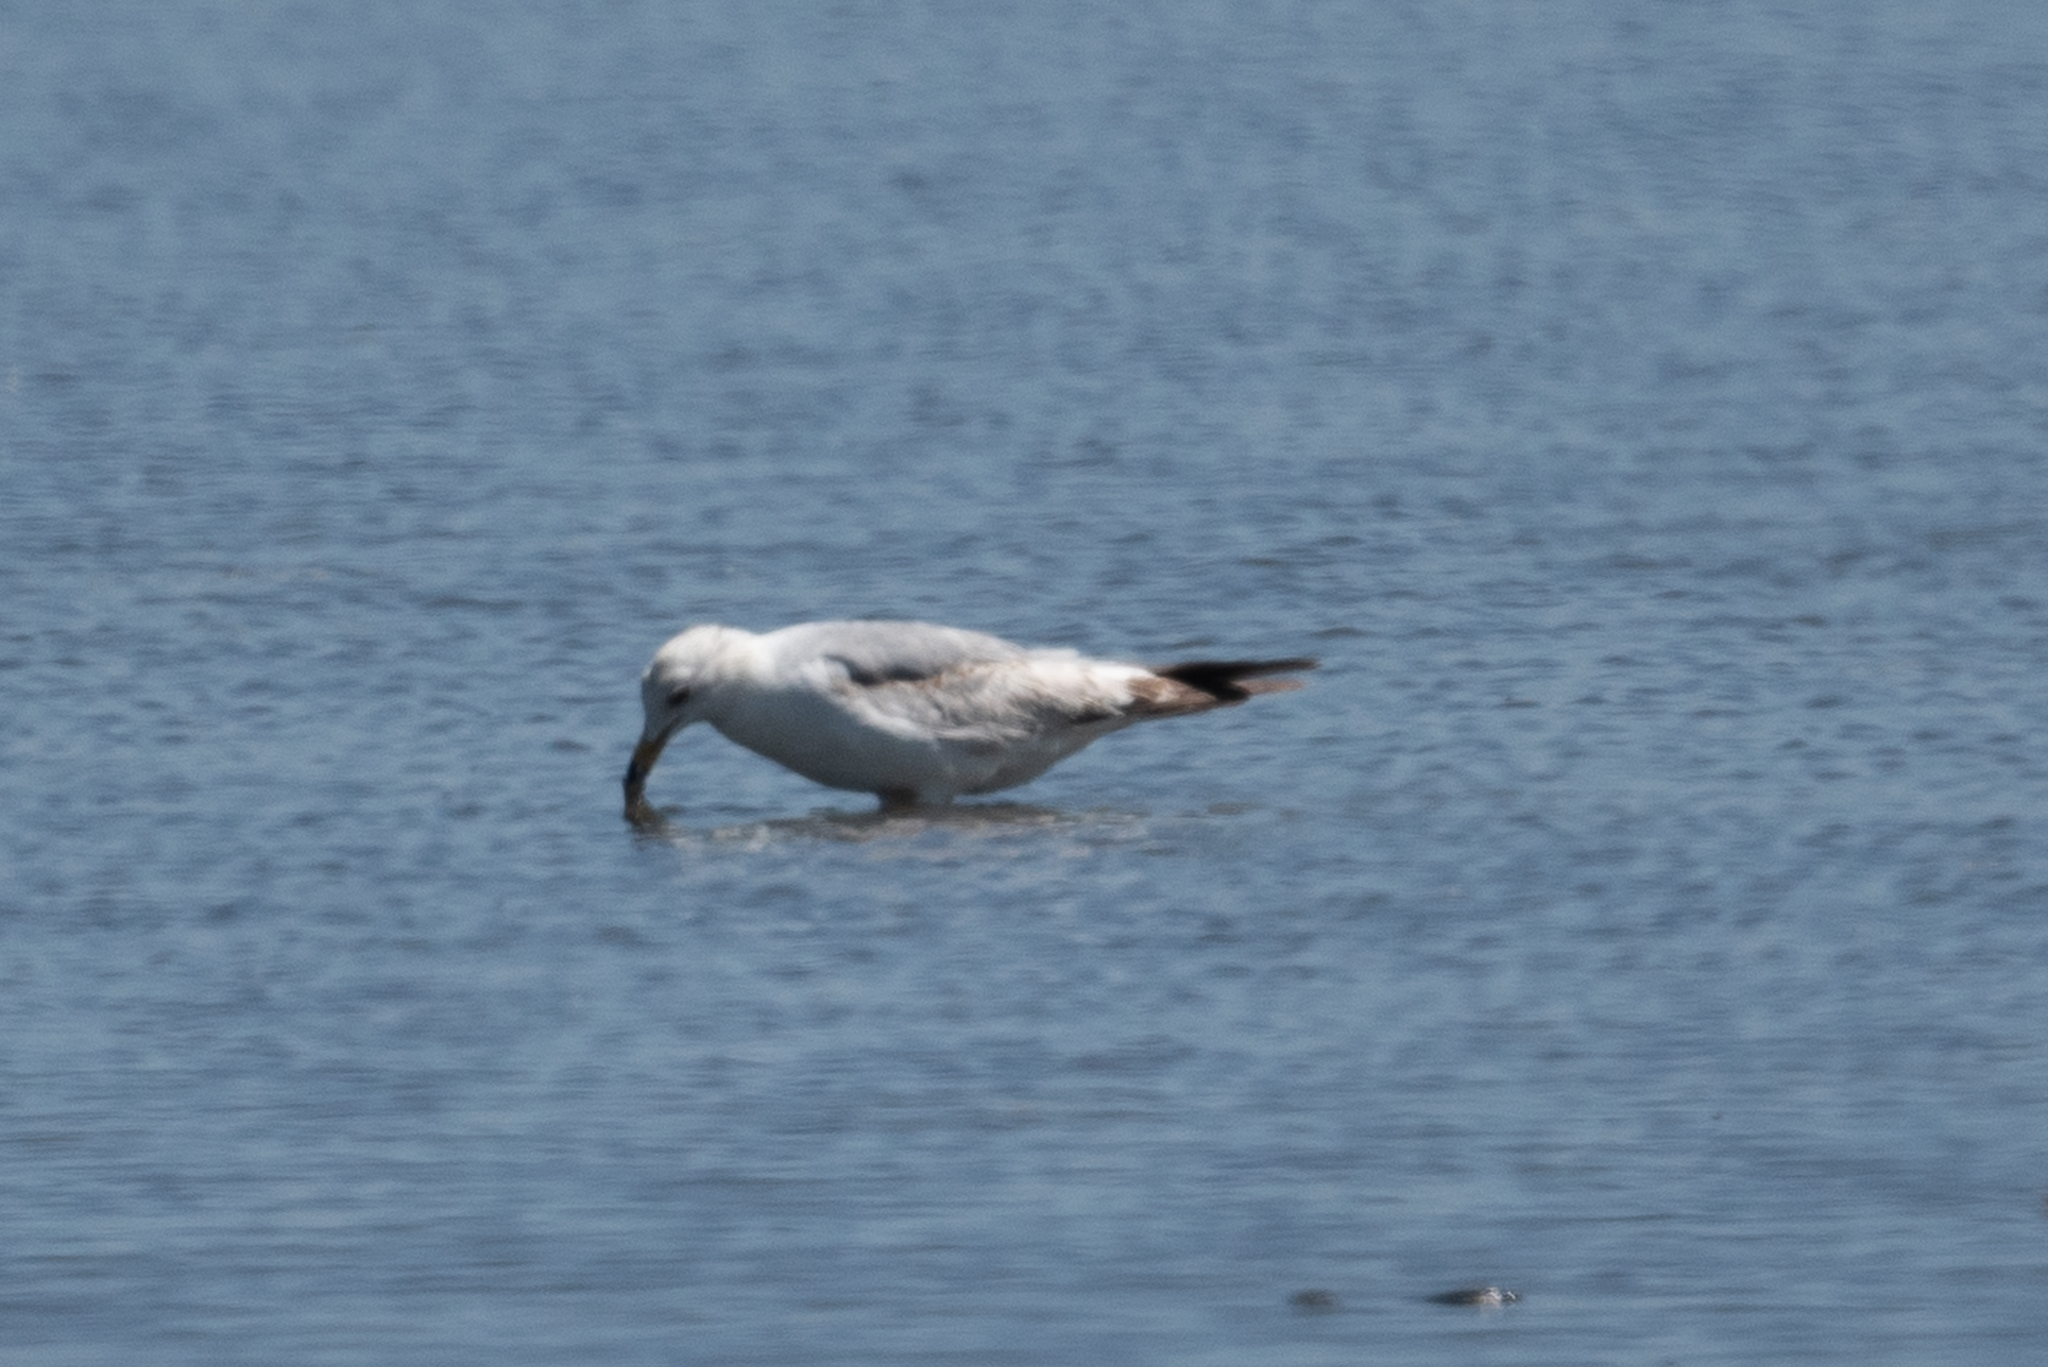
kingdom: Animalia
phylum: Chordata
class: Aves
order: Charadriiformes
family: Laridae
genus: Larus
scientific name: Larus delawarensis
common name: Ring-billed gull
